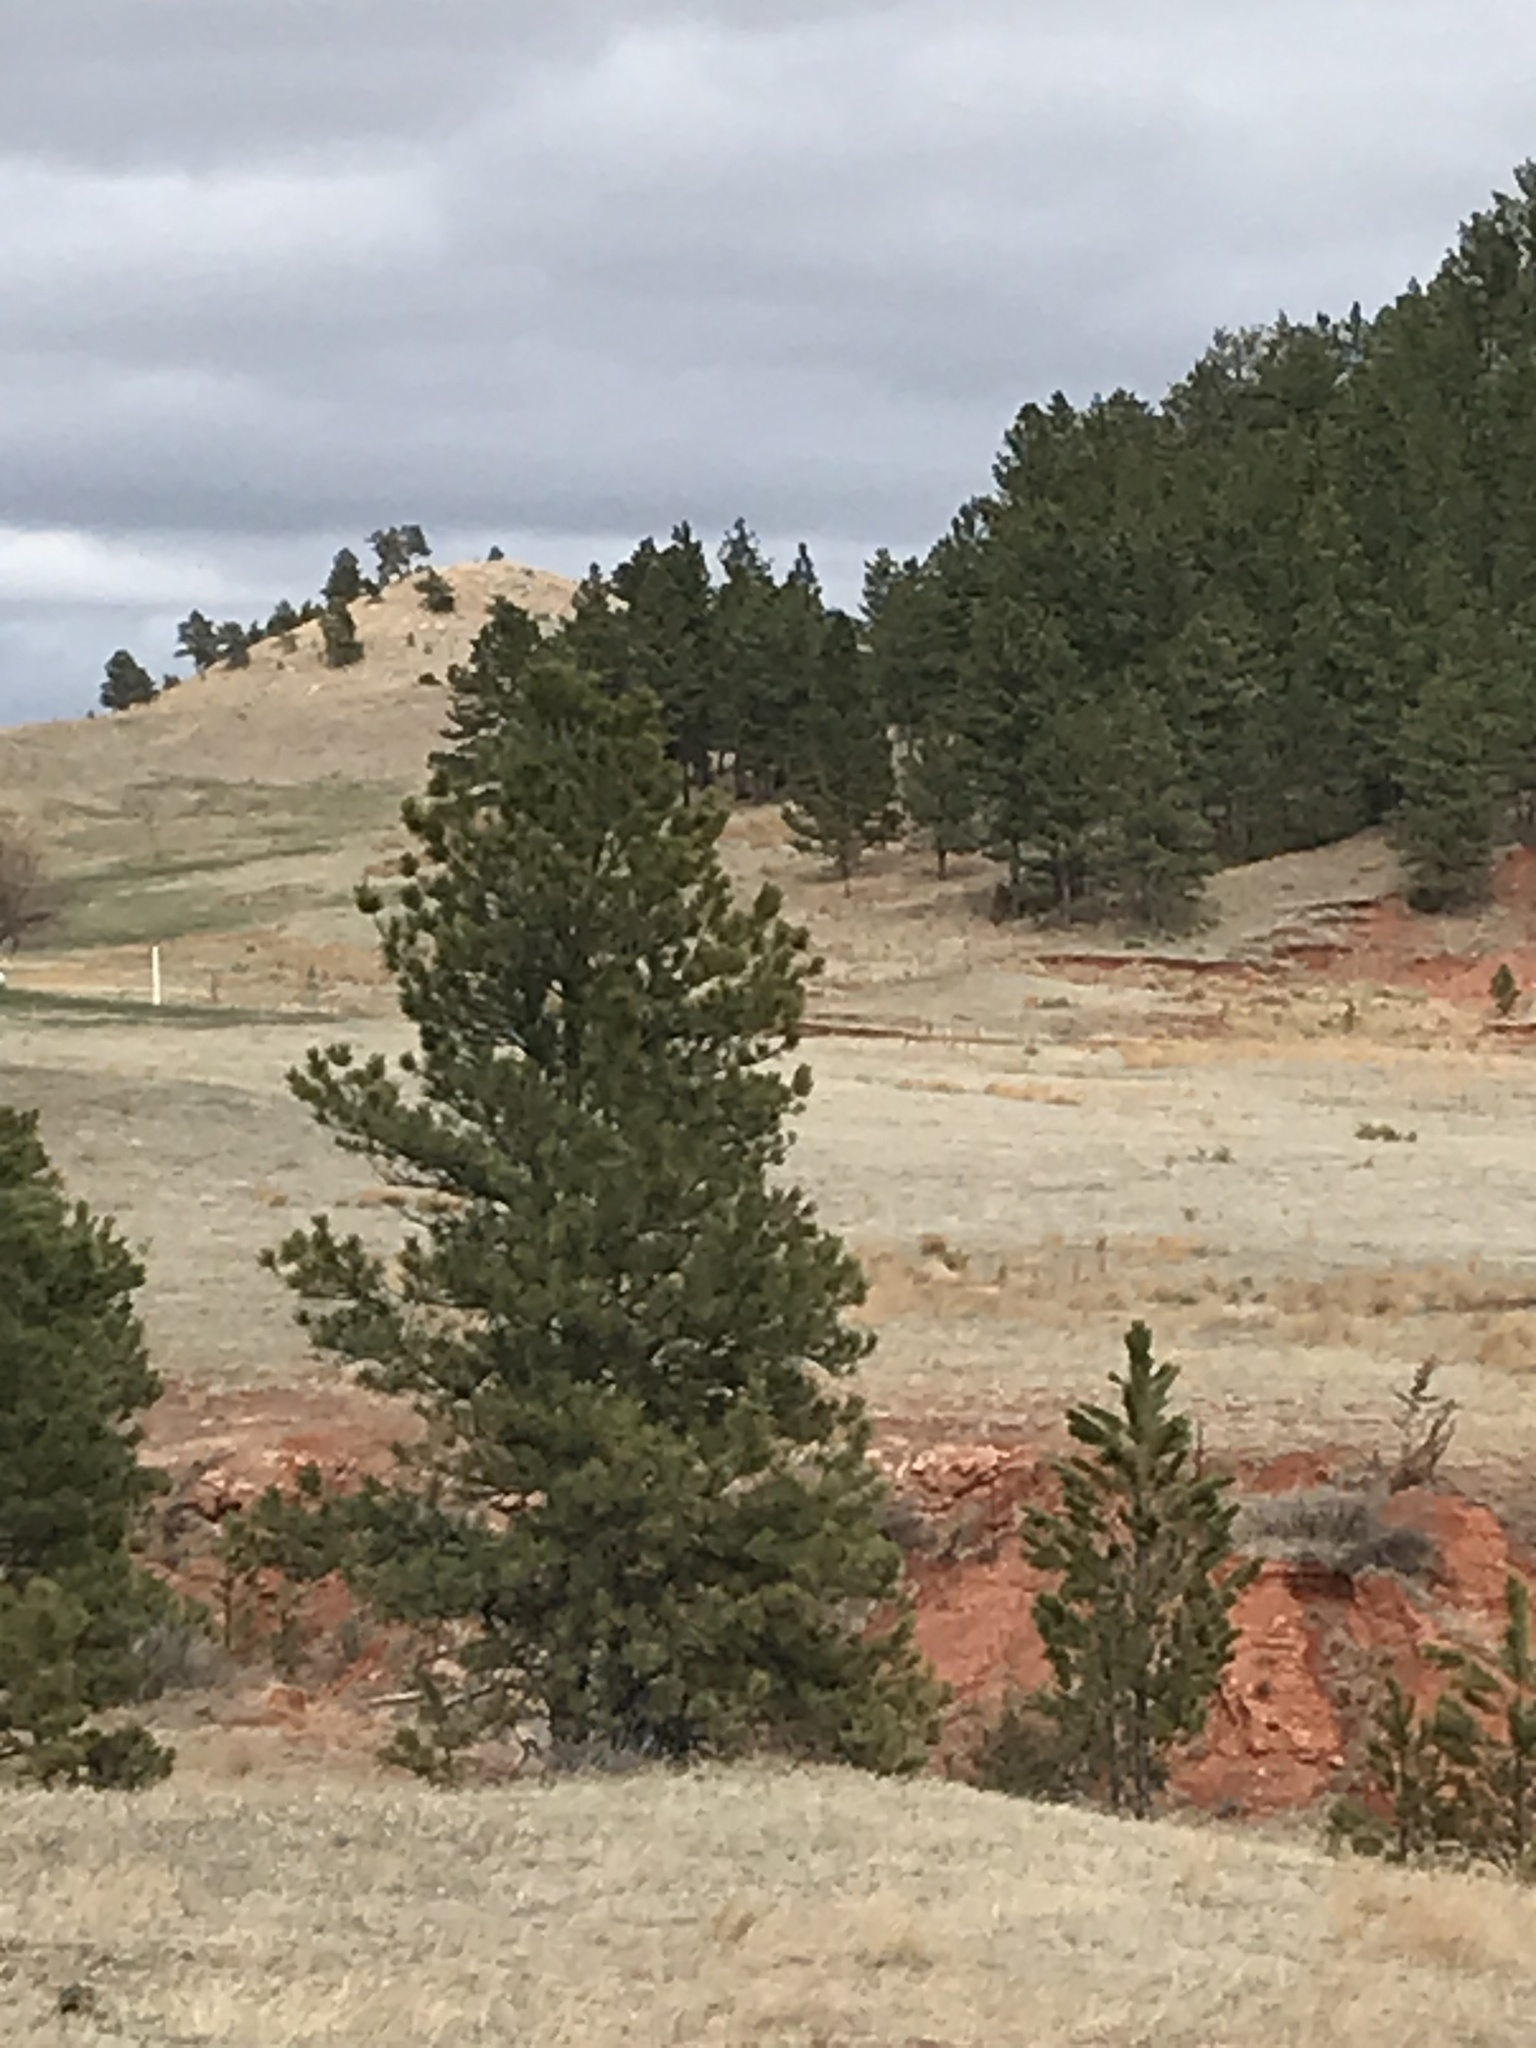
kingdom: Plantae
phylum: Tracheophyta
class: Pinopsida
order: Pinales
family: Pinaceae
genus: Pinus
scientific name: Pinus ponderosa
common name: Western yellow-pine
